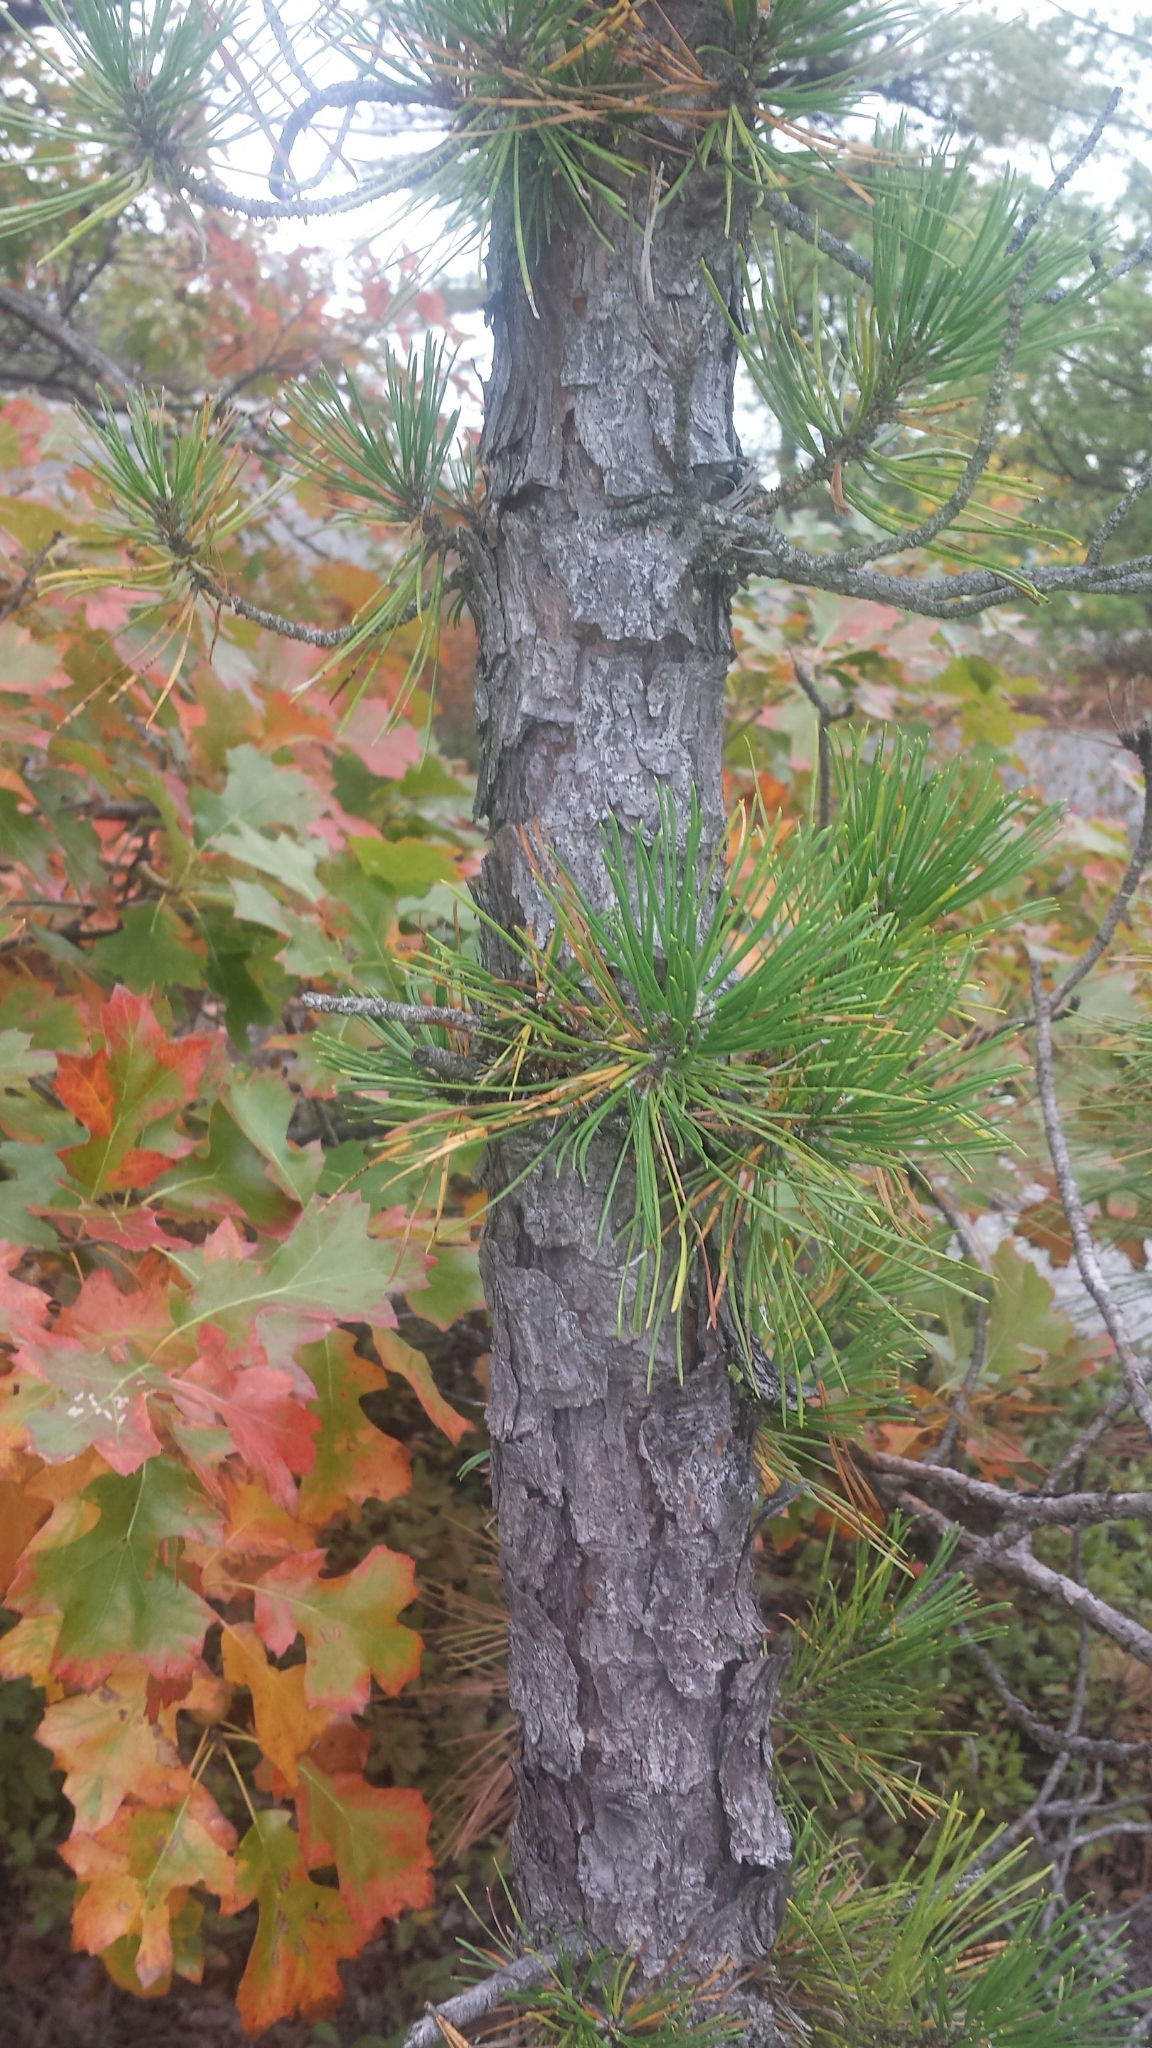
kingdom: Plantae
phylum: Tracheophyta
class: Pinopsida
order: Pinales
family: Pinaceae
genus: Pinus
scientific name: Pinus rigida
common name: Pitch pine
